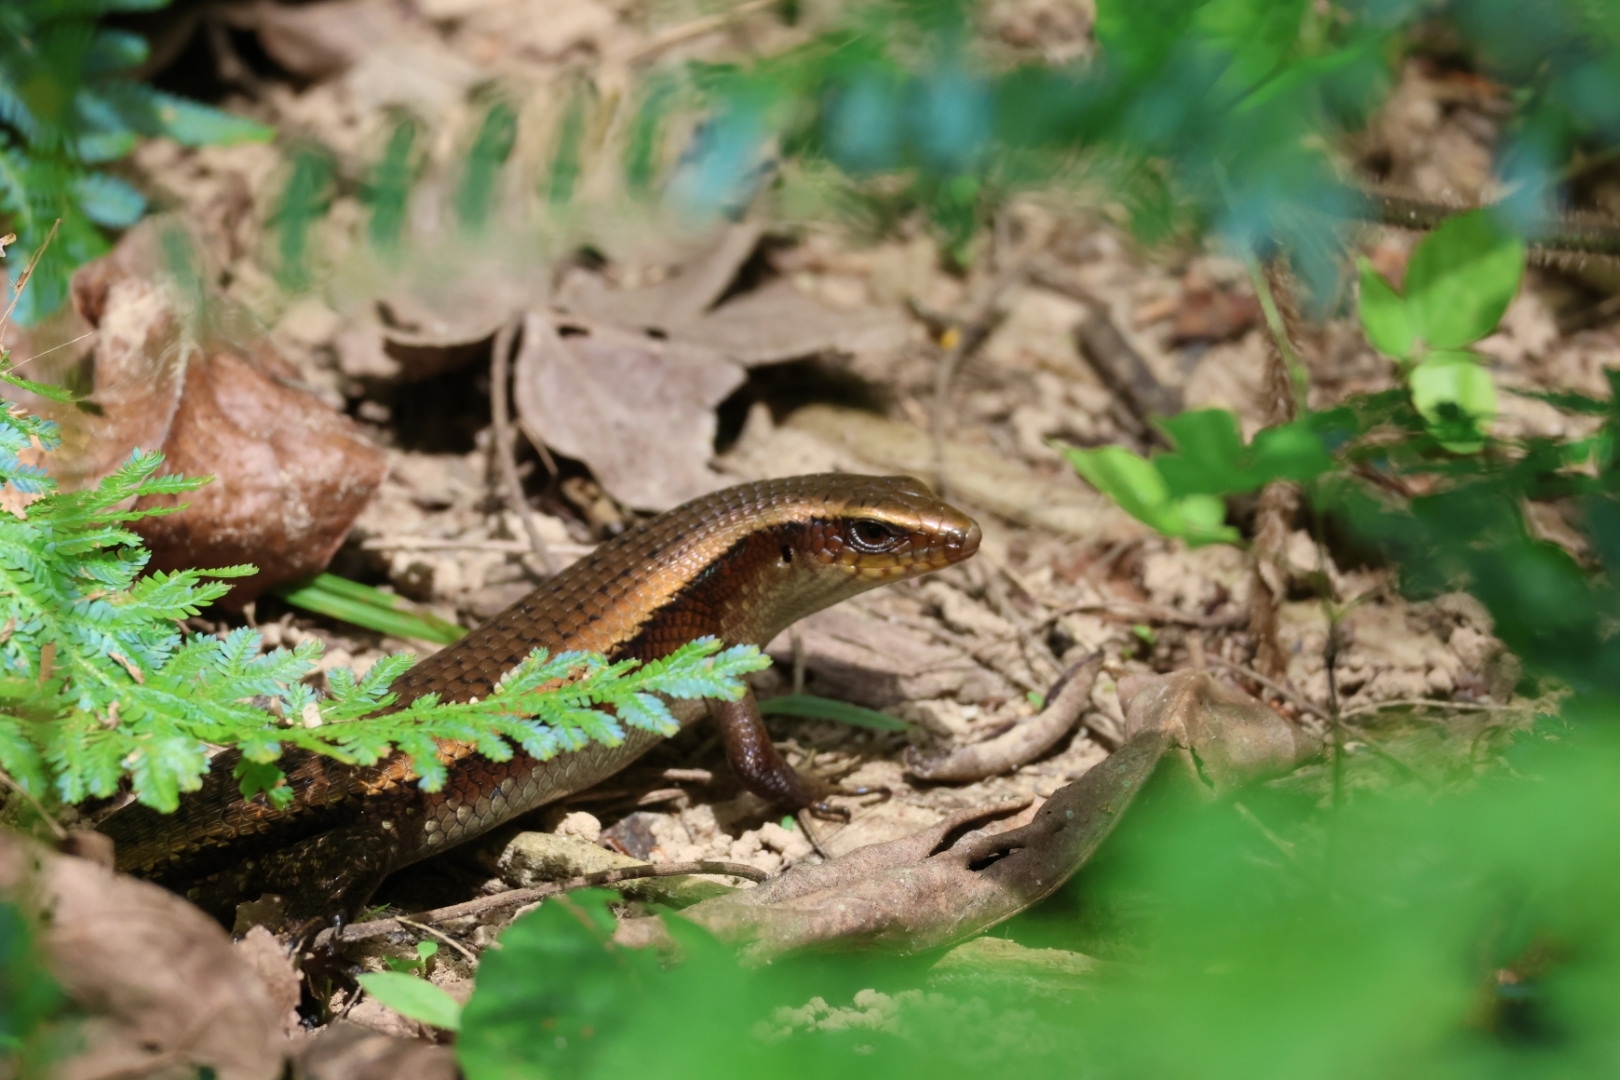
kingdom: Animalia
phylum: Chordata
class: Squamata
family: Scincidae
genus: Eutropis
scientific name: Eutropis multifasciata
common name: Common mabuya
